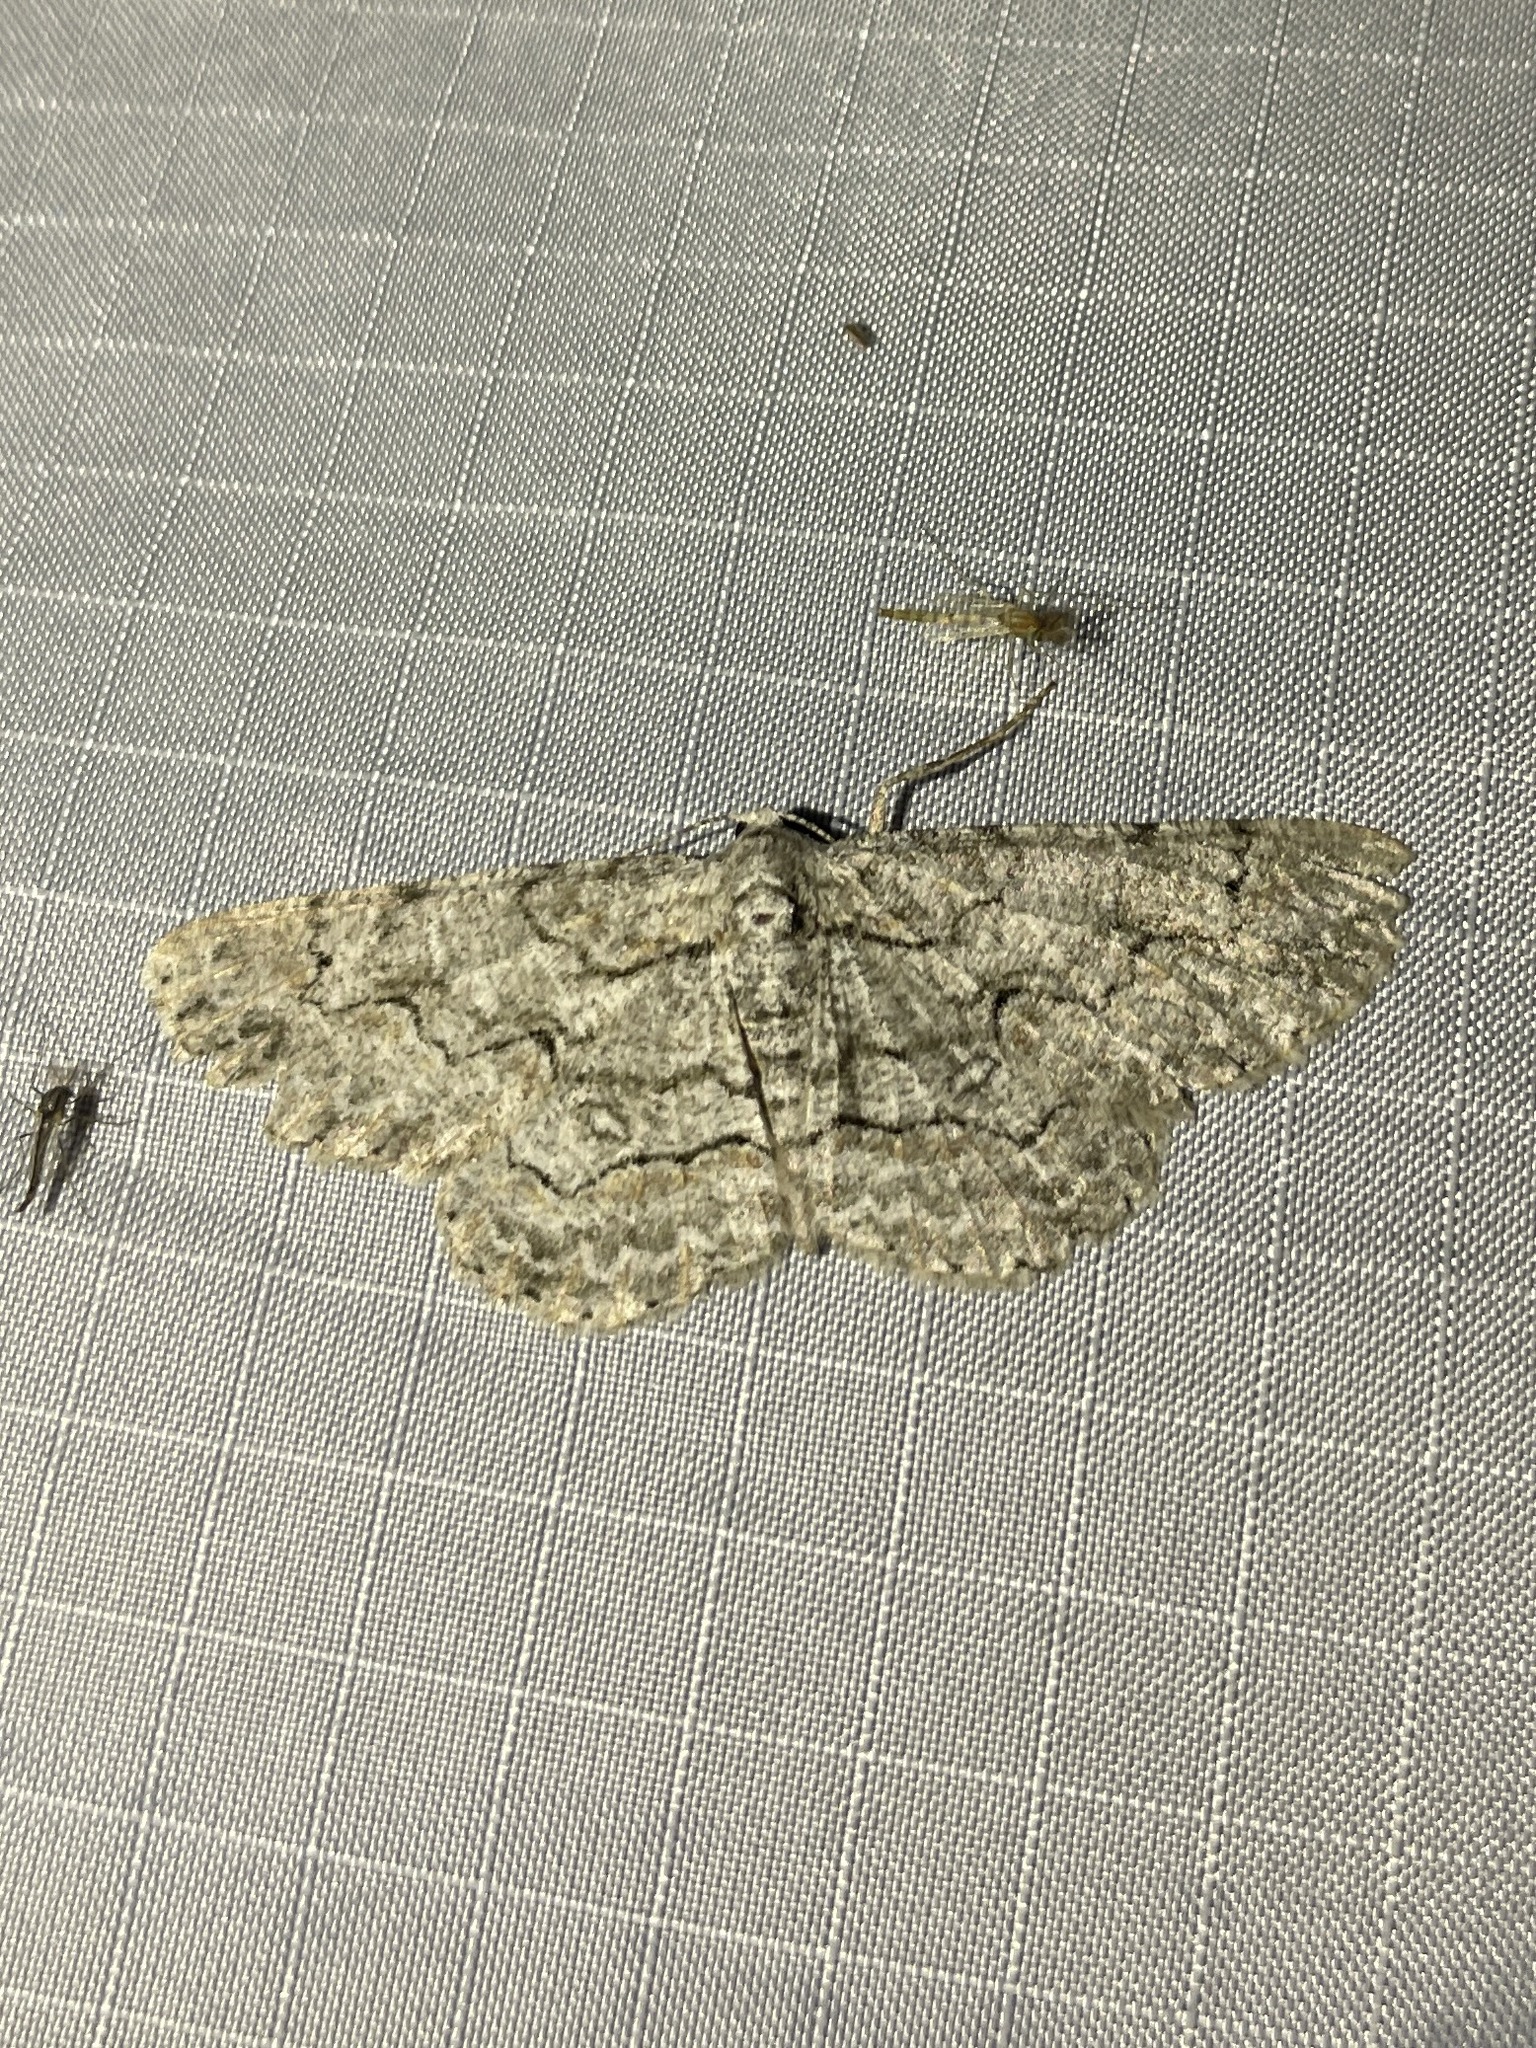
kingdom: Animalia
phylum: Arthropoda
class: Insecta
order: Lepidoptera
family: Geometridae
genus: Iridopsis
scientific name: Iridopsis defectaria
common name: Brown-shaded gray
